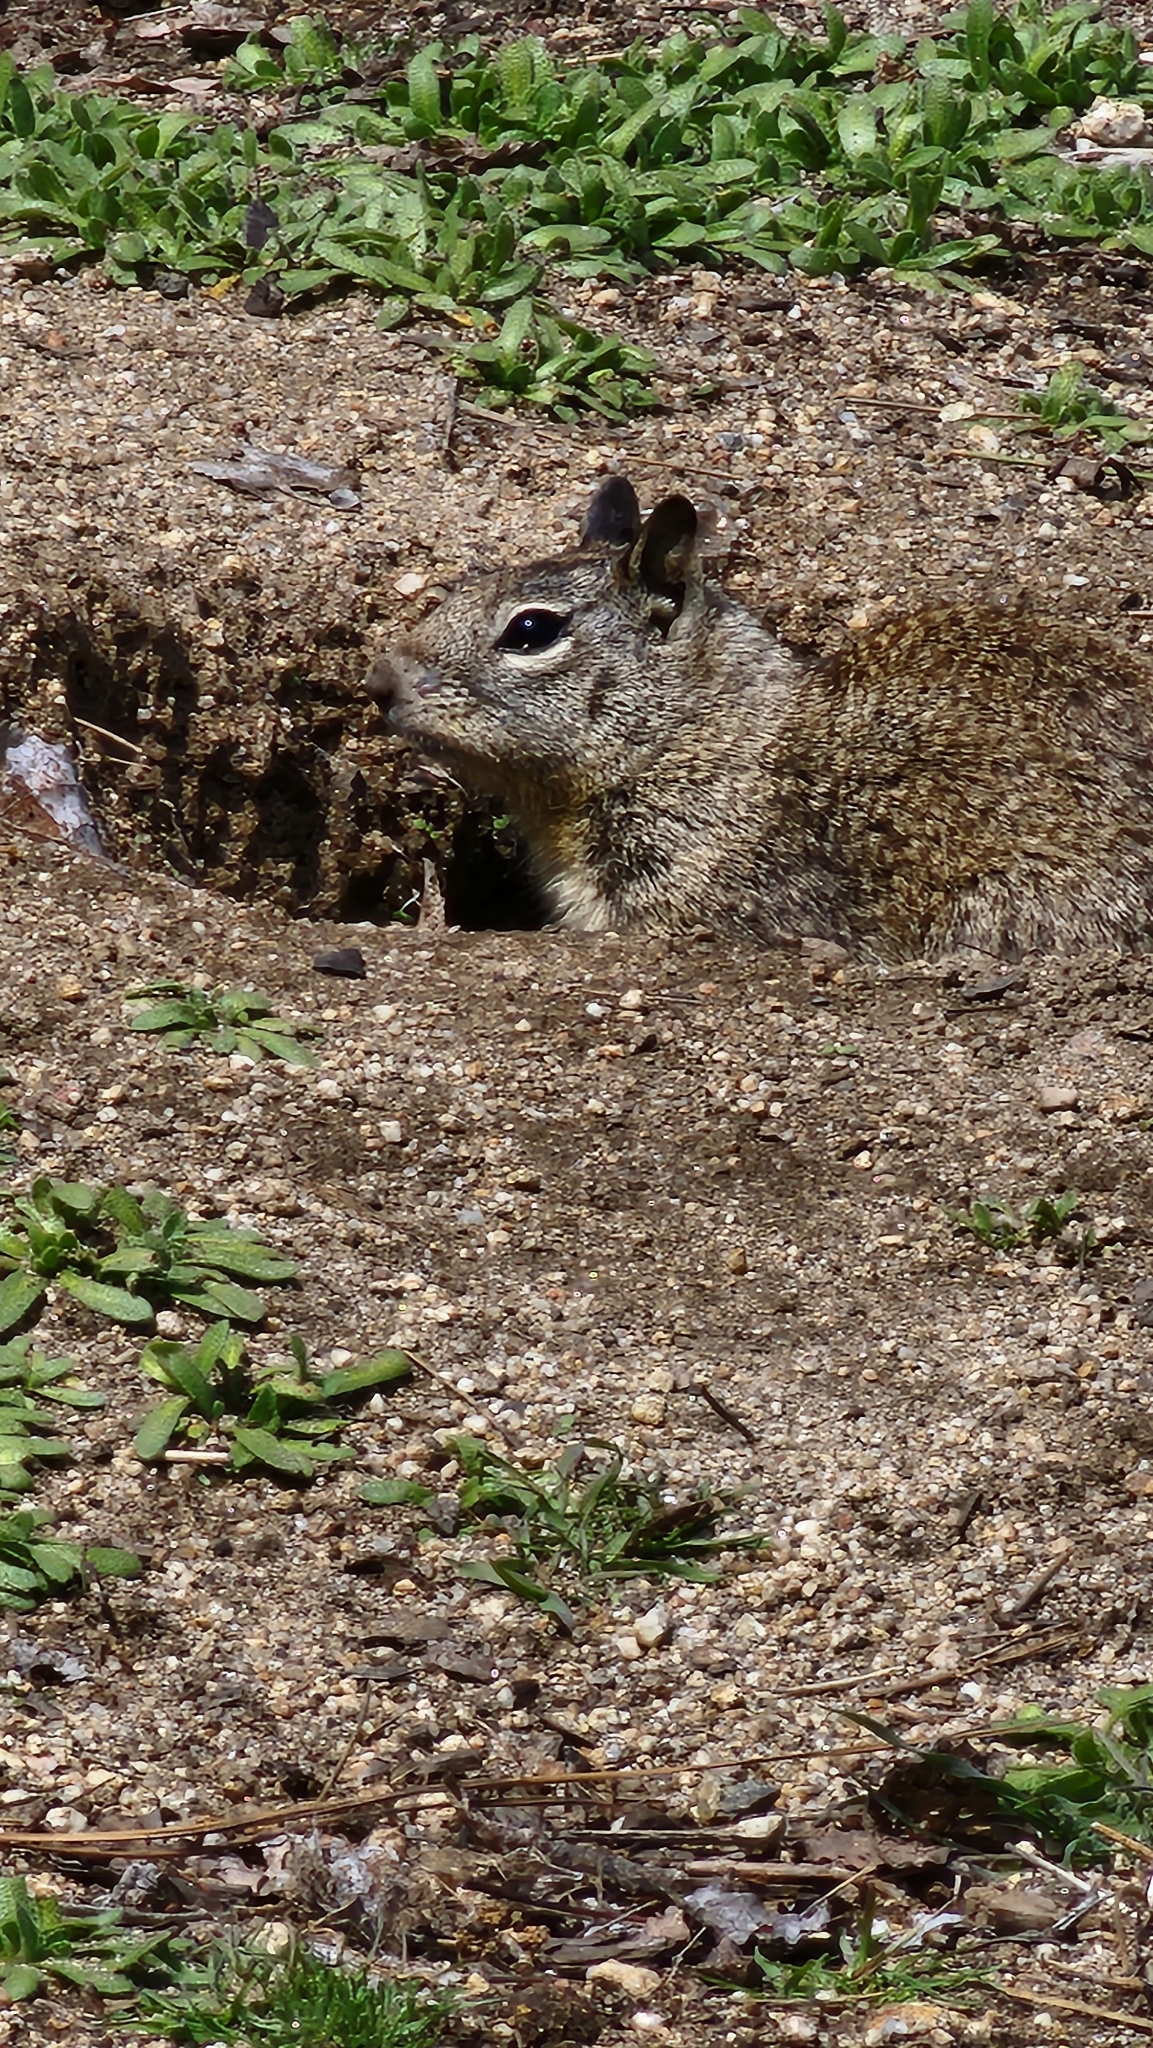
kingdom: Animalia
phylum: Chordata
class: Mammalia
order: Rodentia
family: Sciuridae
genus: Otospermophilus
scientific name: Otospermophilus beecheyi
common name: California ground squirrel
